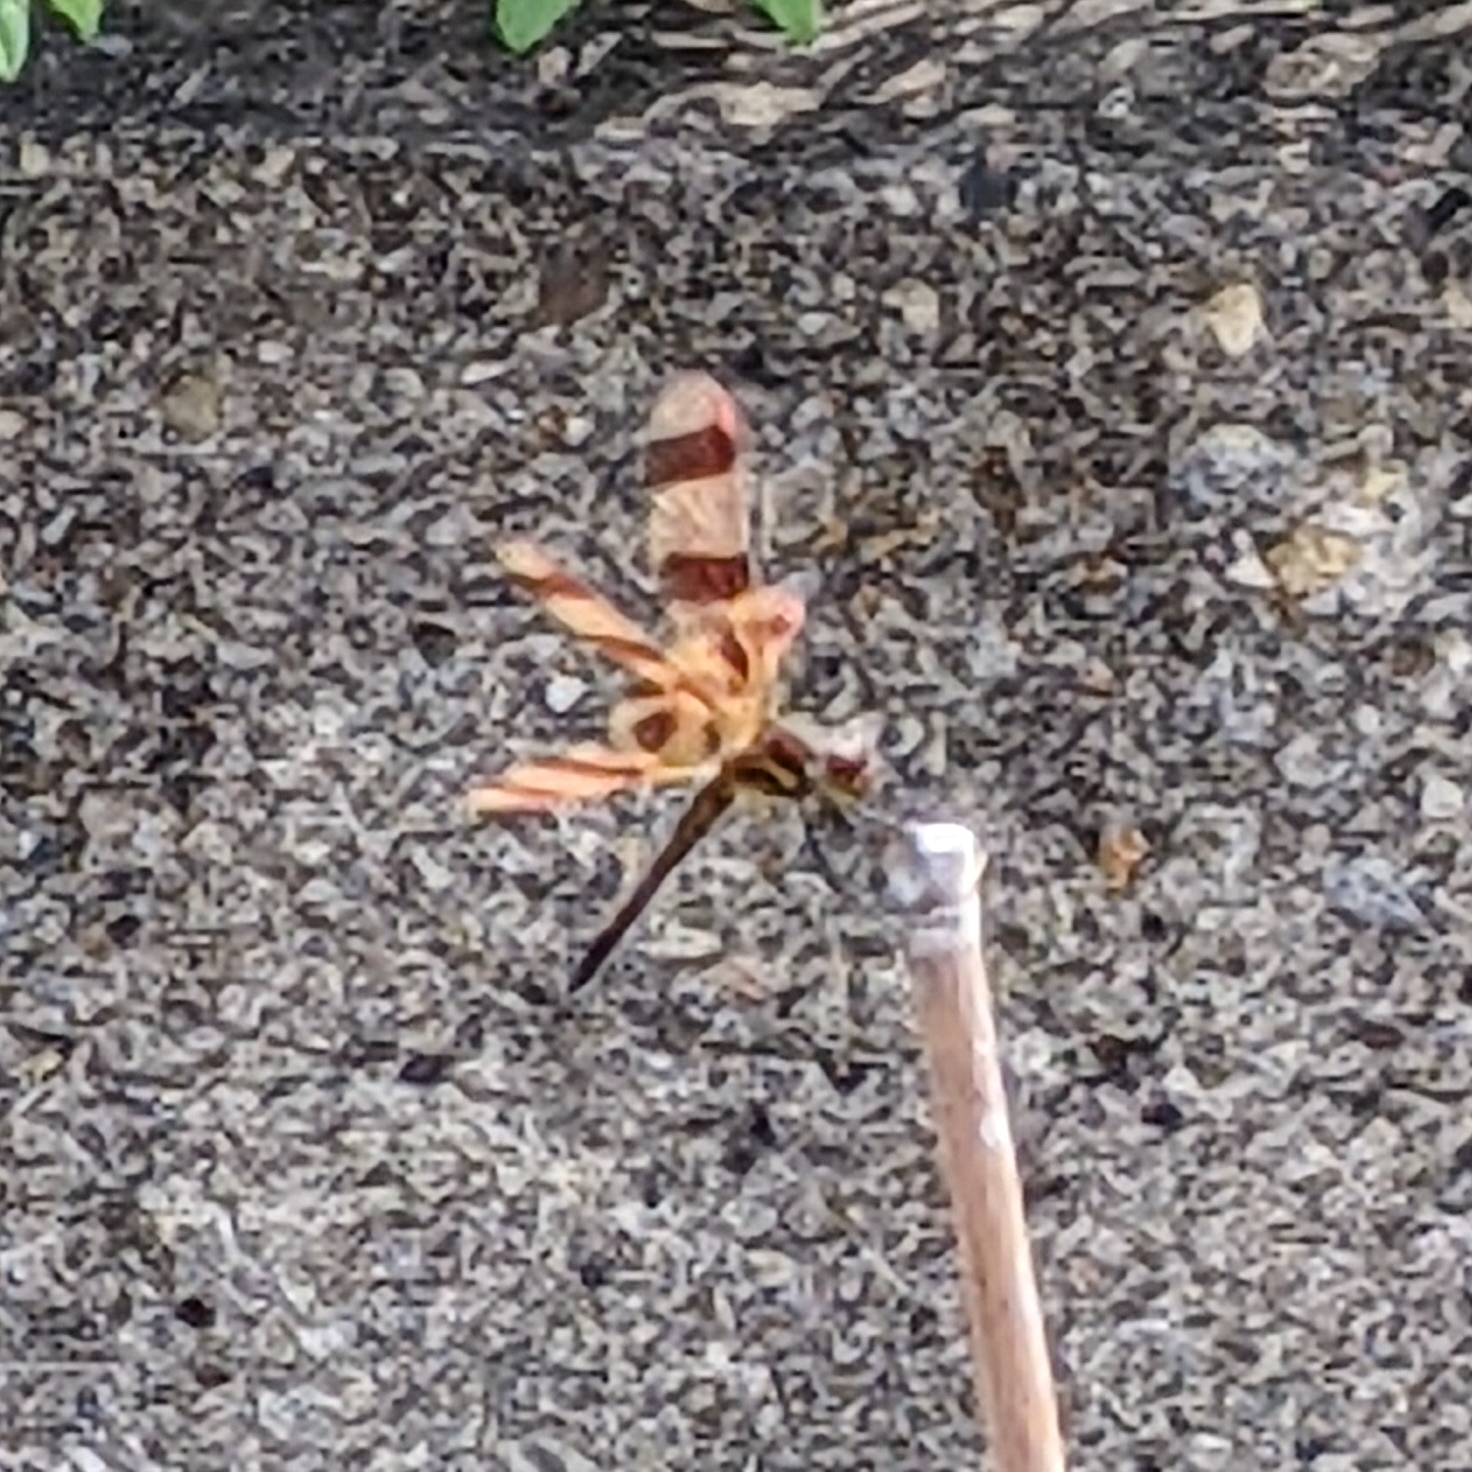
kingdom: Animalia
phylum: Arthropoda
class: Insecta
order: Odonata
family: Libellulidae
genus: Celithemis
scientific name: Celithemis eponina
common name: Halloween pennant
